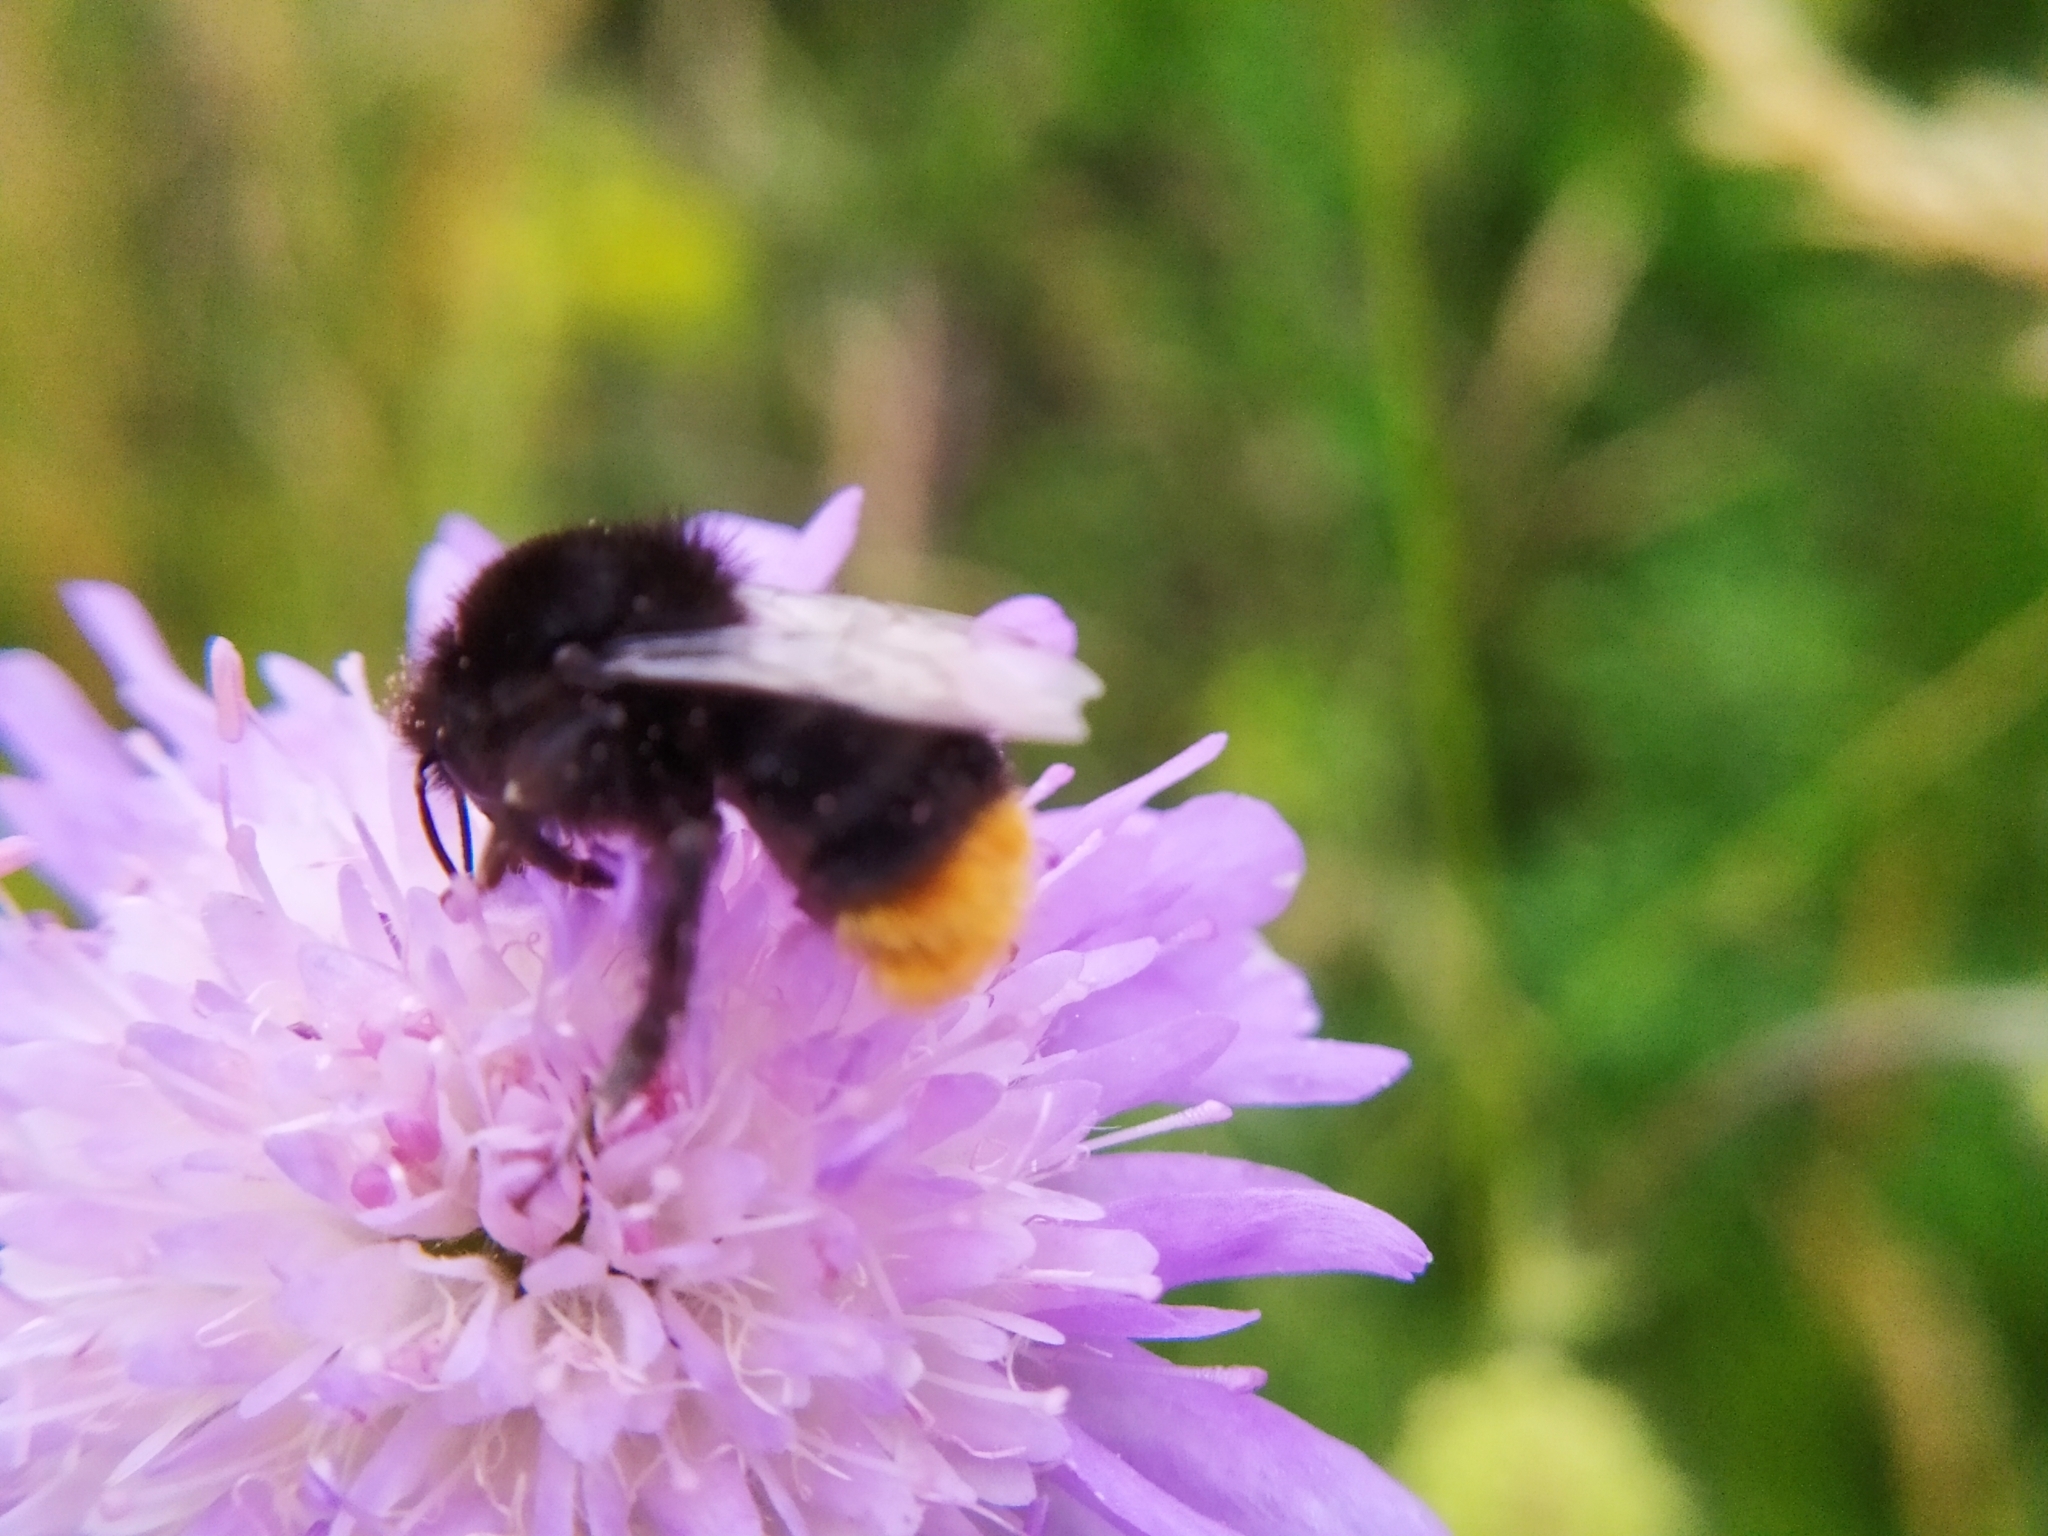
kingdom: Animalia
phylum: Arthropoda
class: Insecta
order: Hymenoptera
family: Apidae
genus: Bombus
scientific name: Bombus lapidarius
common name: Large red-tailed humble-bee
